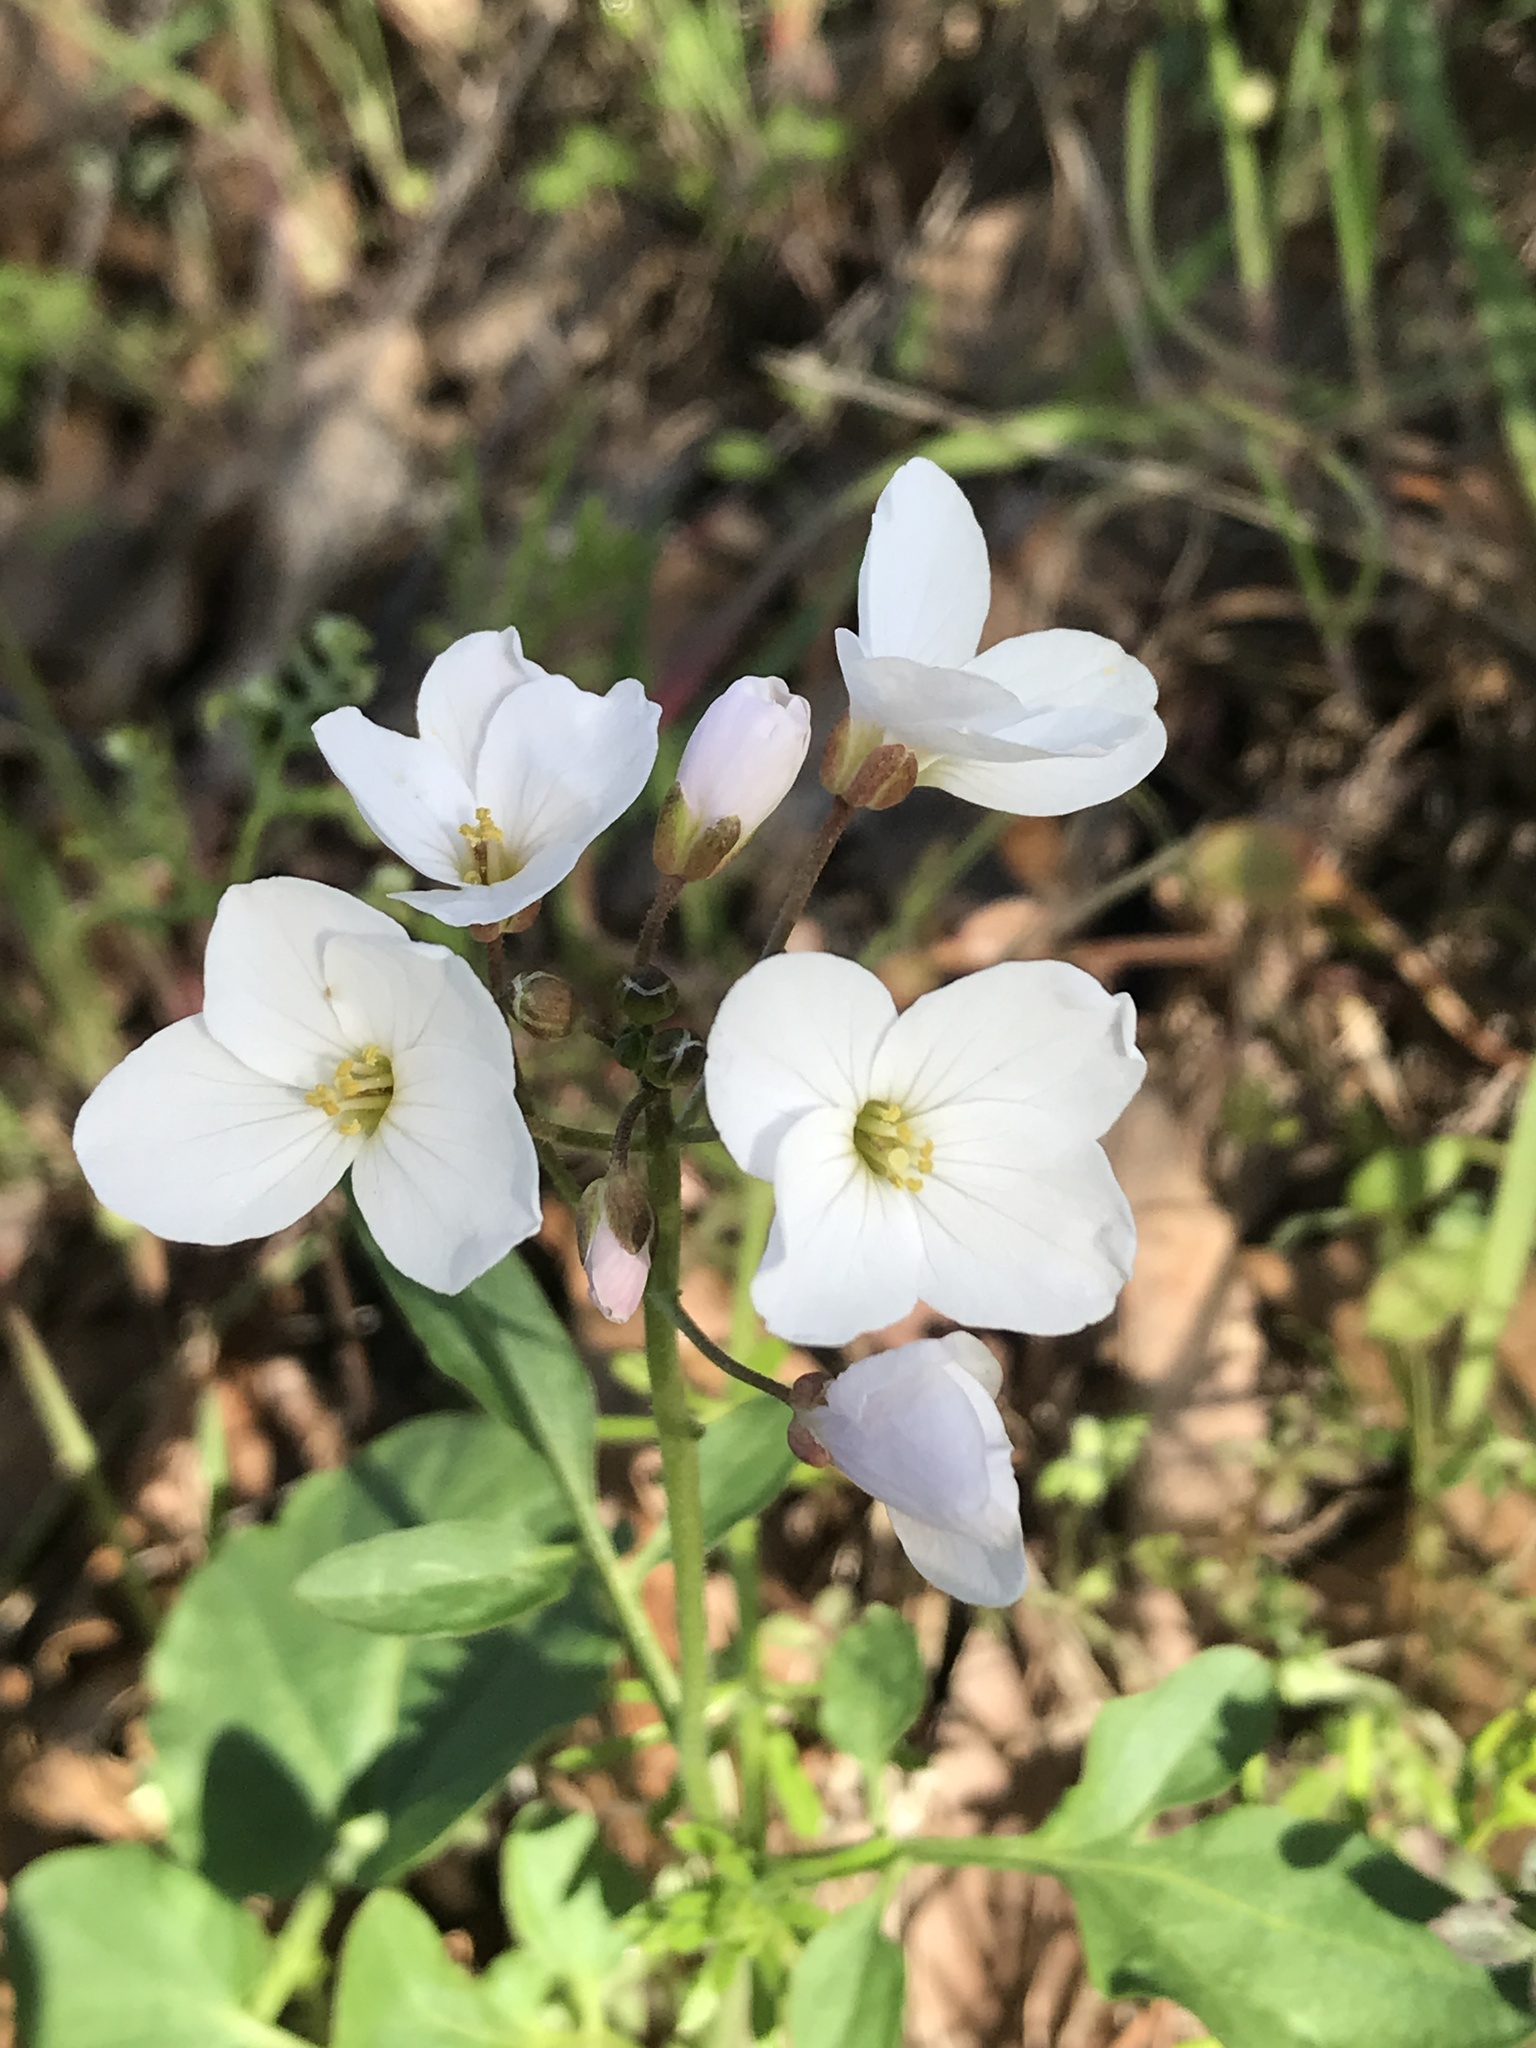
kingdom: Plantae
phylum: Tracheophyta
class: Magnoliopsida
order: Brassicales
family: Brassicaceae
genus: Cardamine
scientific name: Cardamine californica
